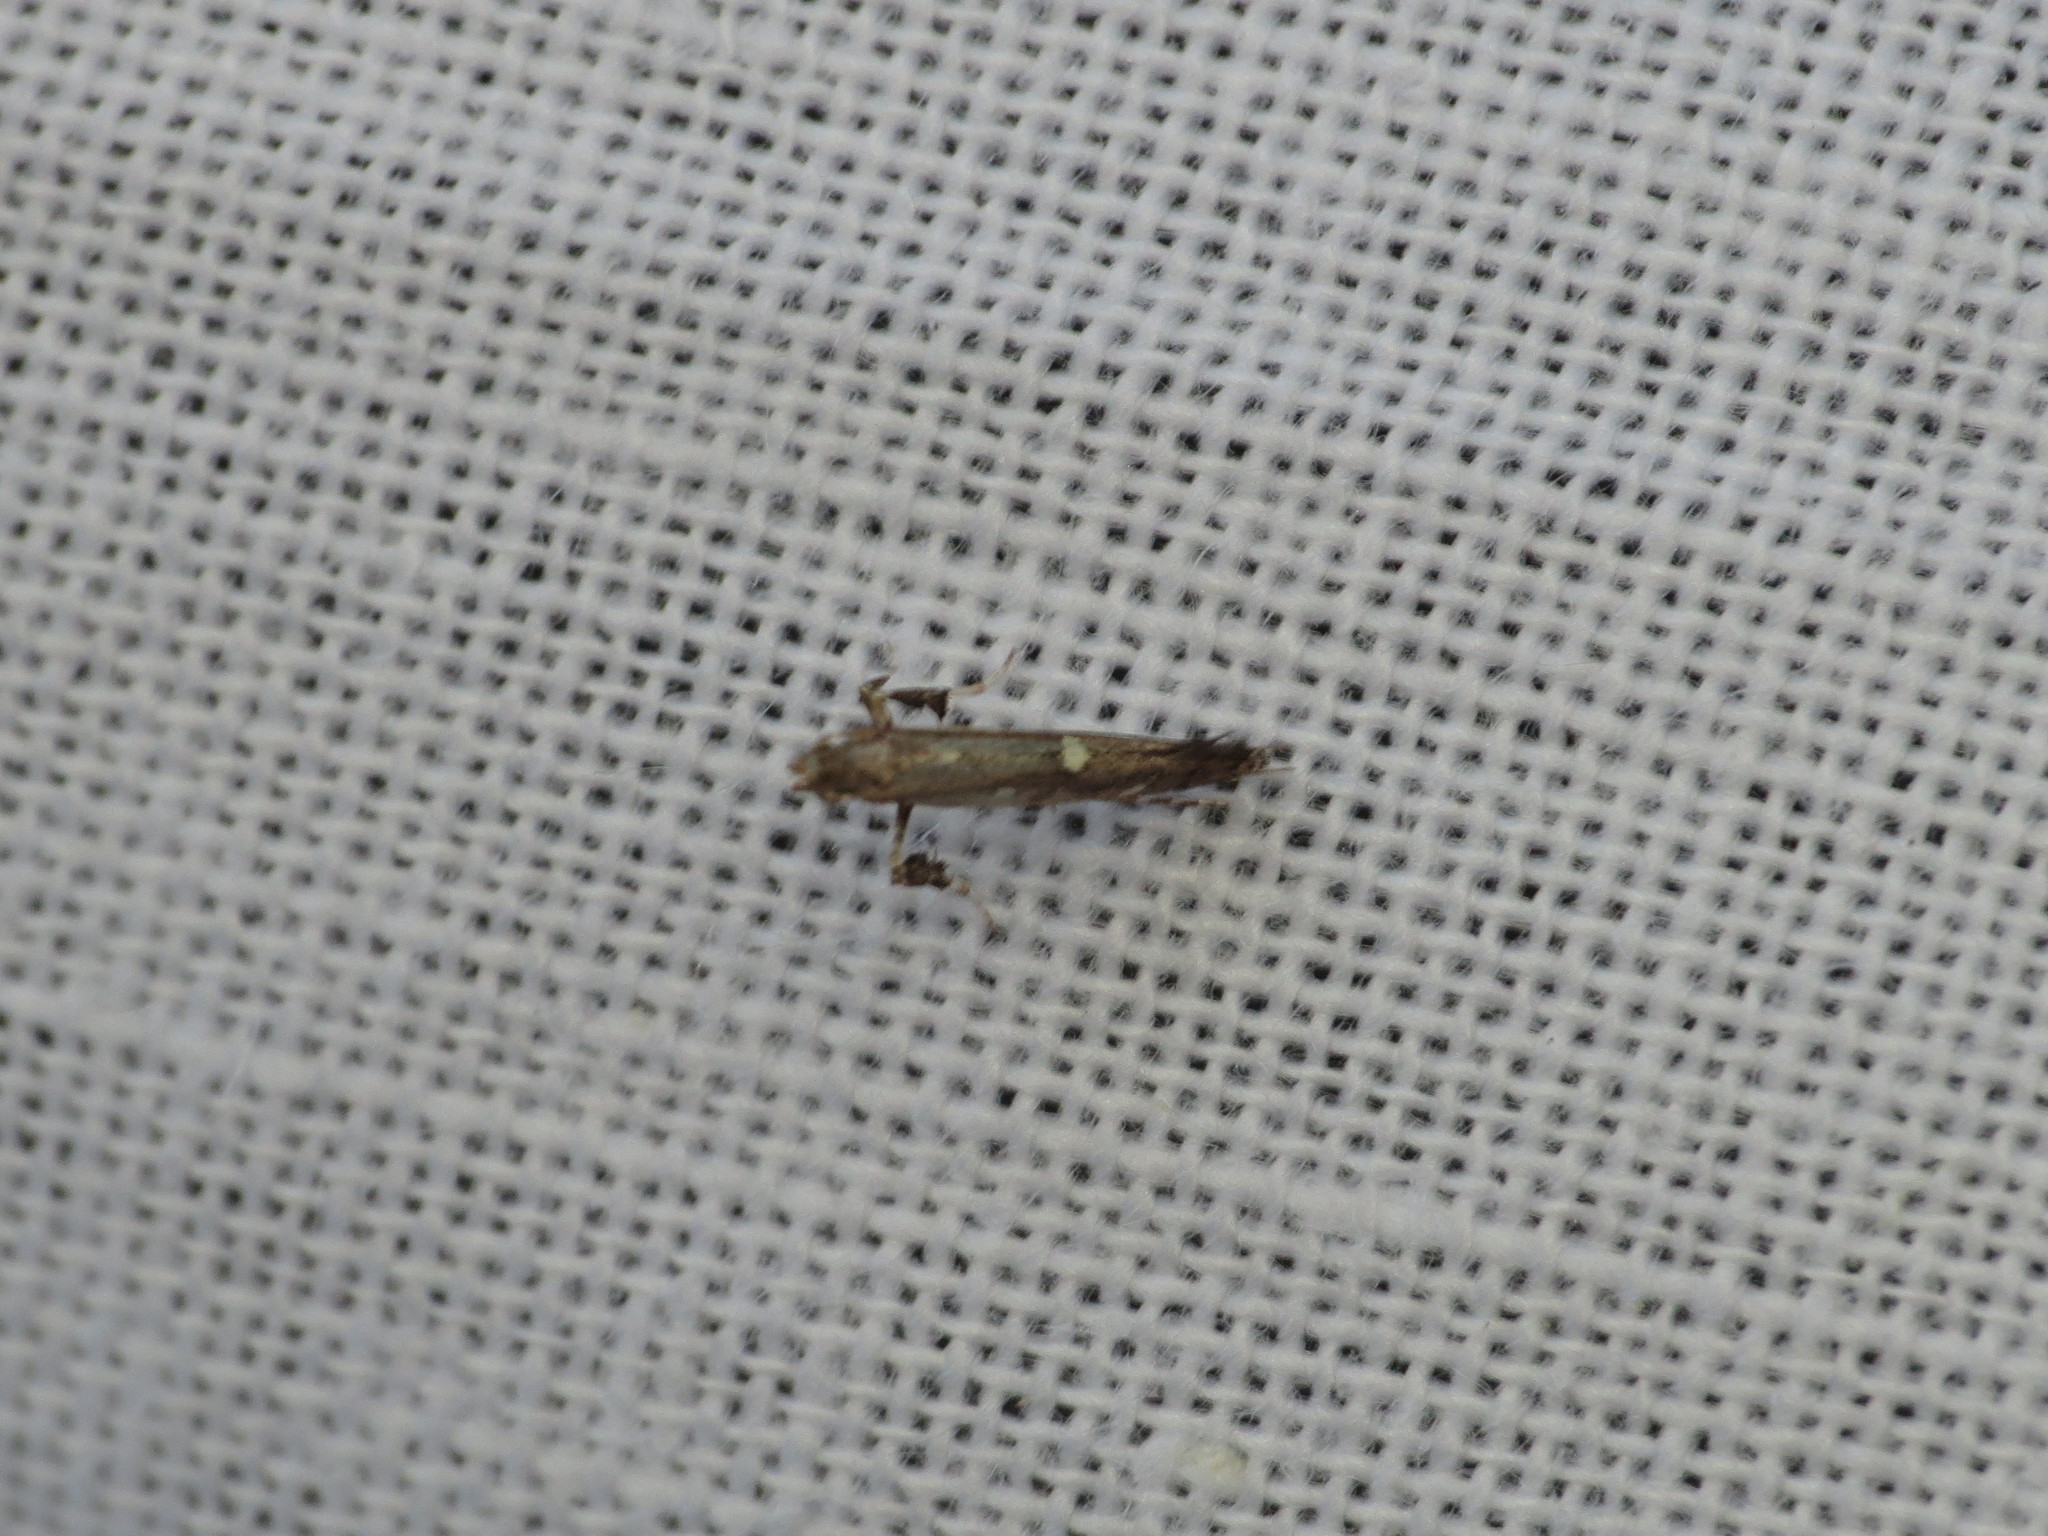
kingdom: Animalia
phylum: Arthropoda
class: Insecta
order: Lepidoptera
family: Gracillariidae
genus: Caloptilia
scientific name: Caloptilia triadicae
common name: Tallow leaf roller
